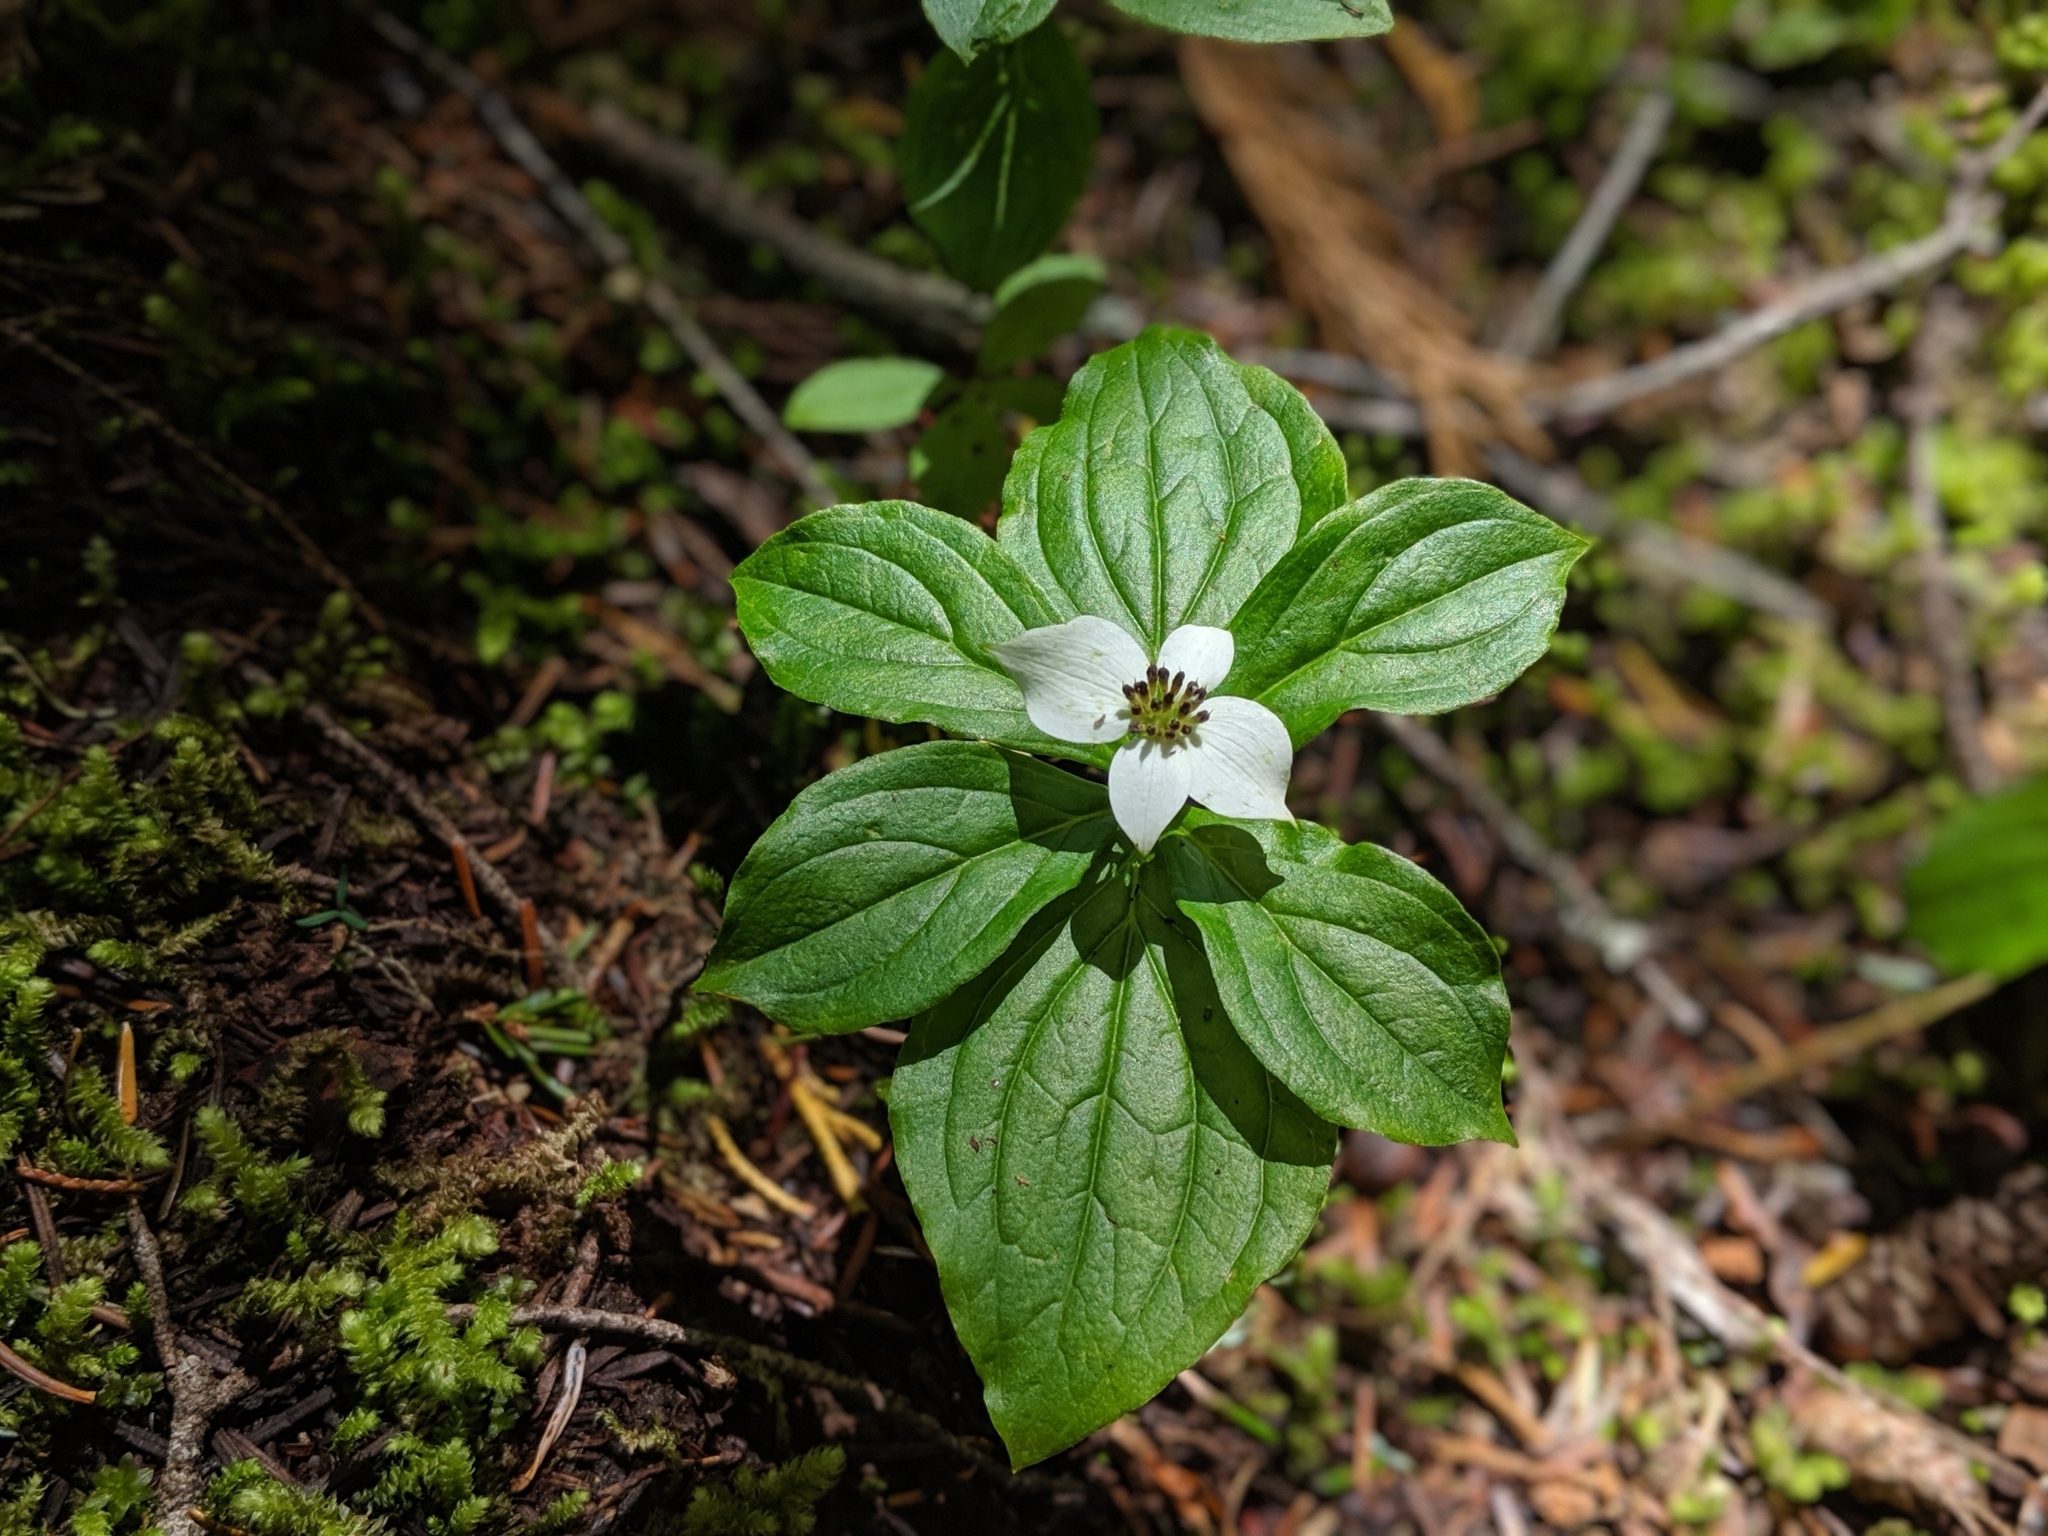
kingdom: Plantae
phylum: Tracheophyta
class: Magnoliopsida
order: Cornales
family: Cornaceae
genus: Cornus
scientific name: Cornus unalaschkensis
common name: Alaska bunchberry
